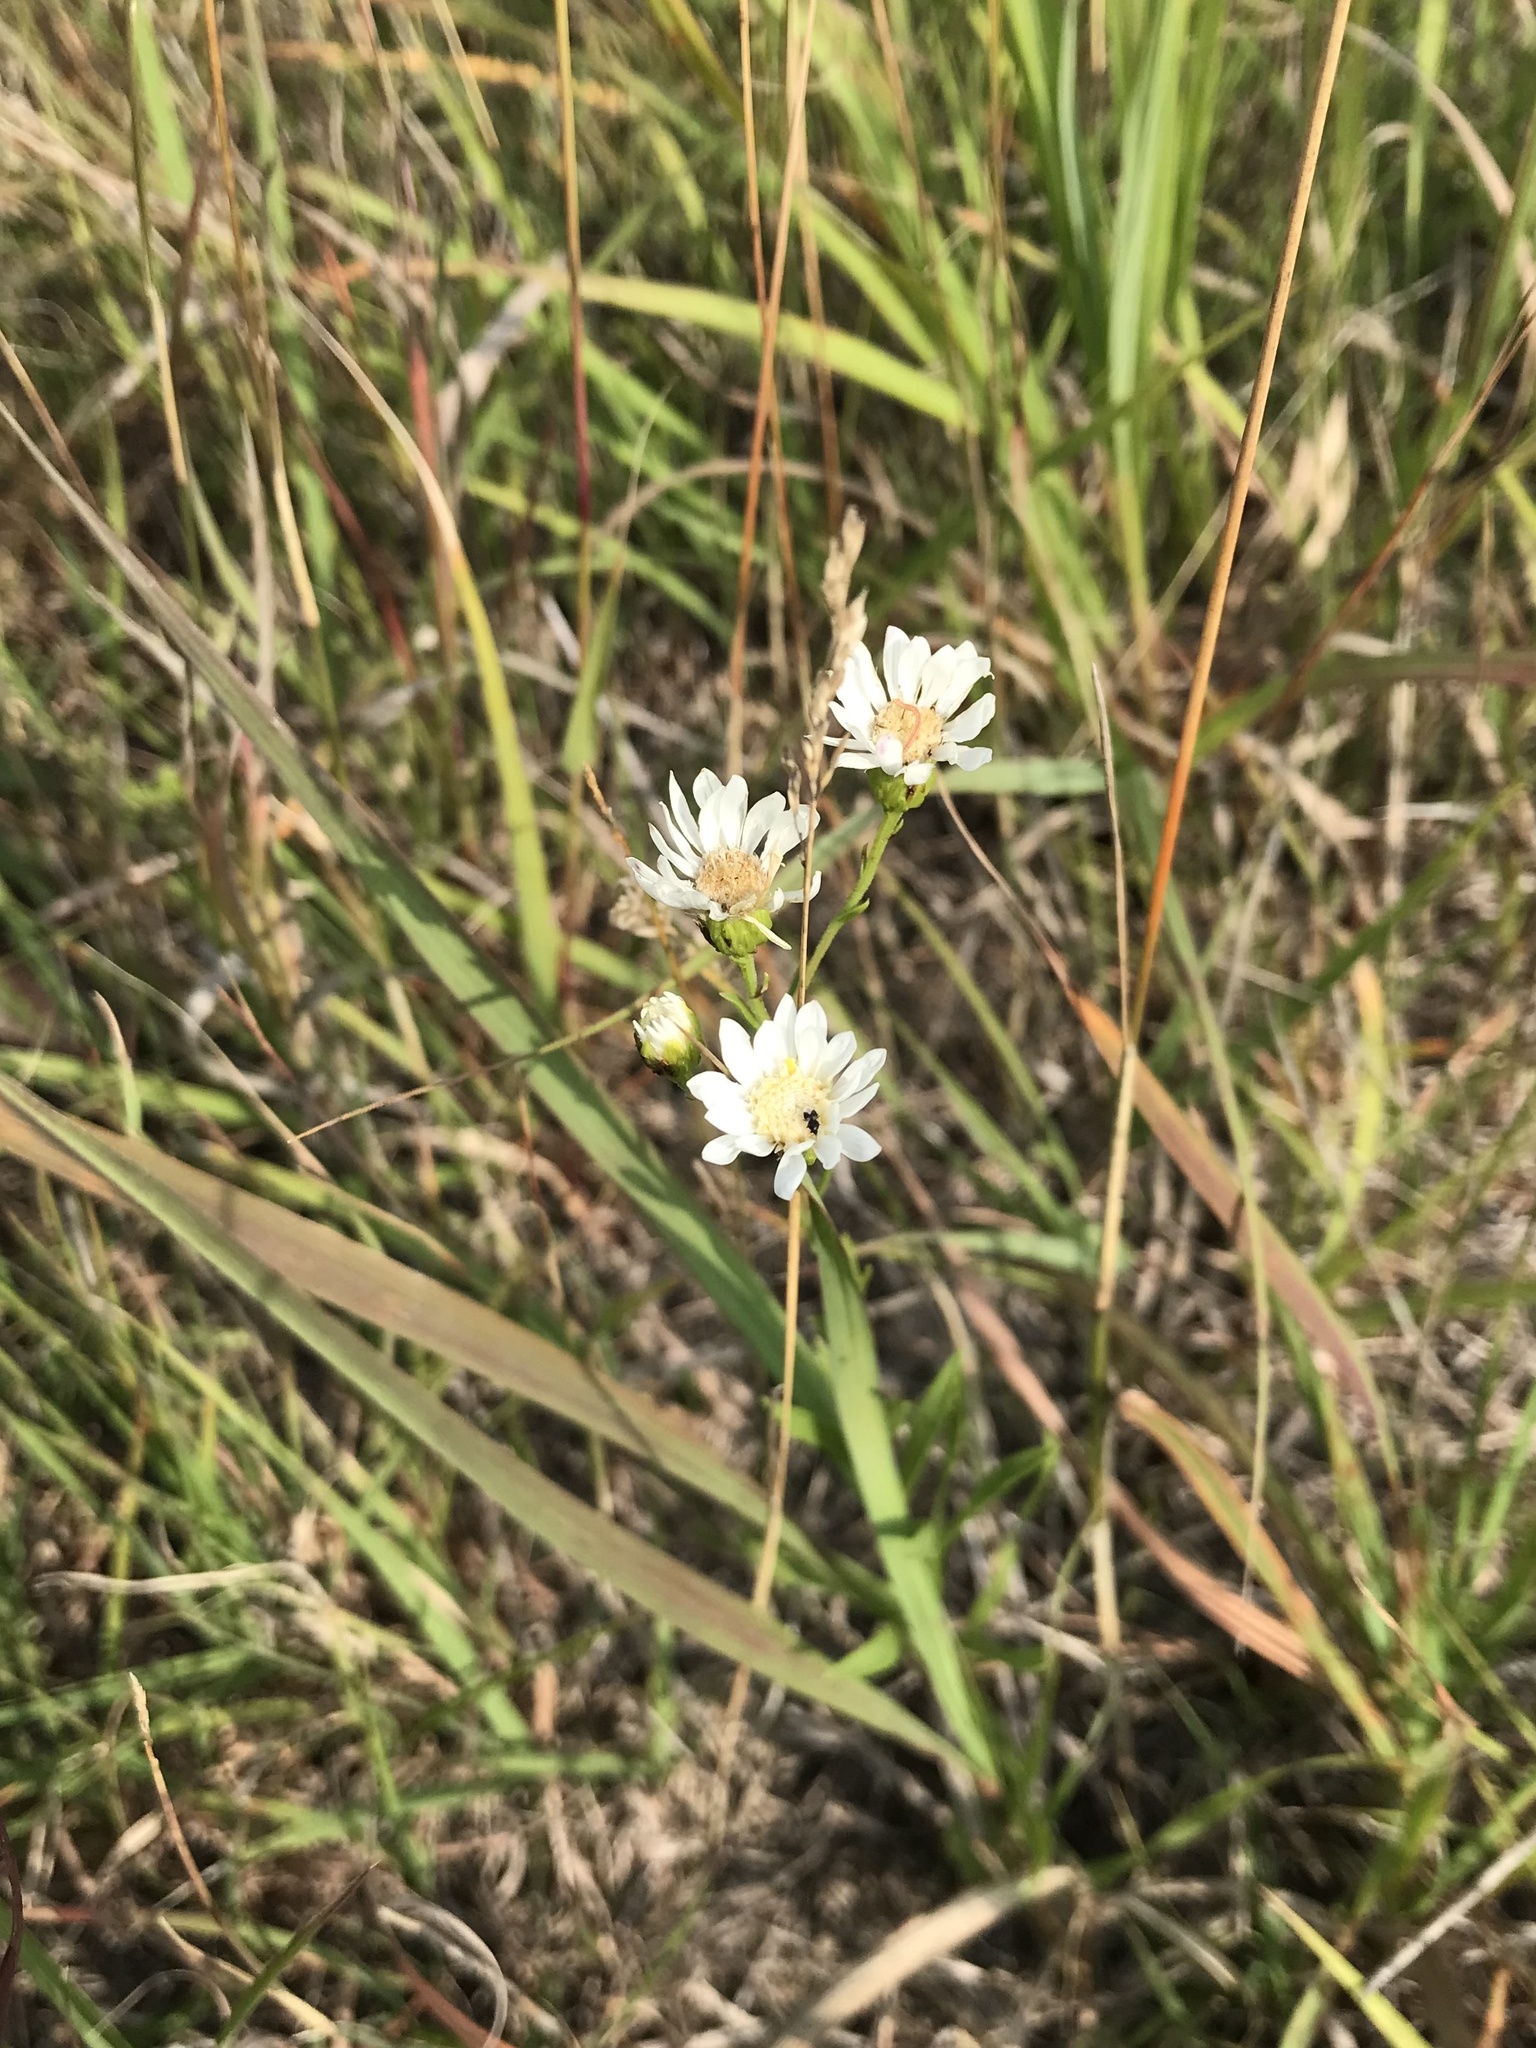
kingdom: Plantae
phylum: Tracheophyta
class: Magnoliopsida
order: Asterales
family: Asteraceae
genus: Solidago
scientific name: Solidago ptarmicoides
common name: White flat-top goldenrod
